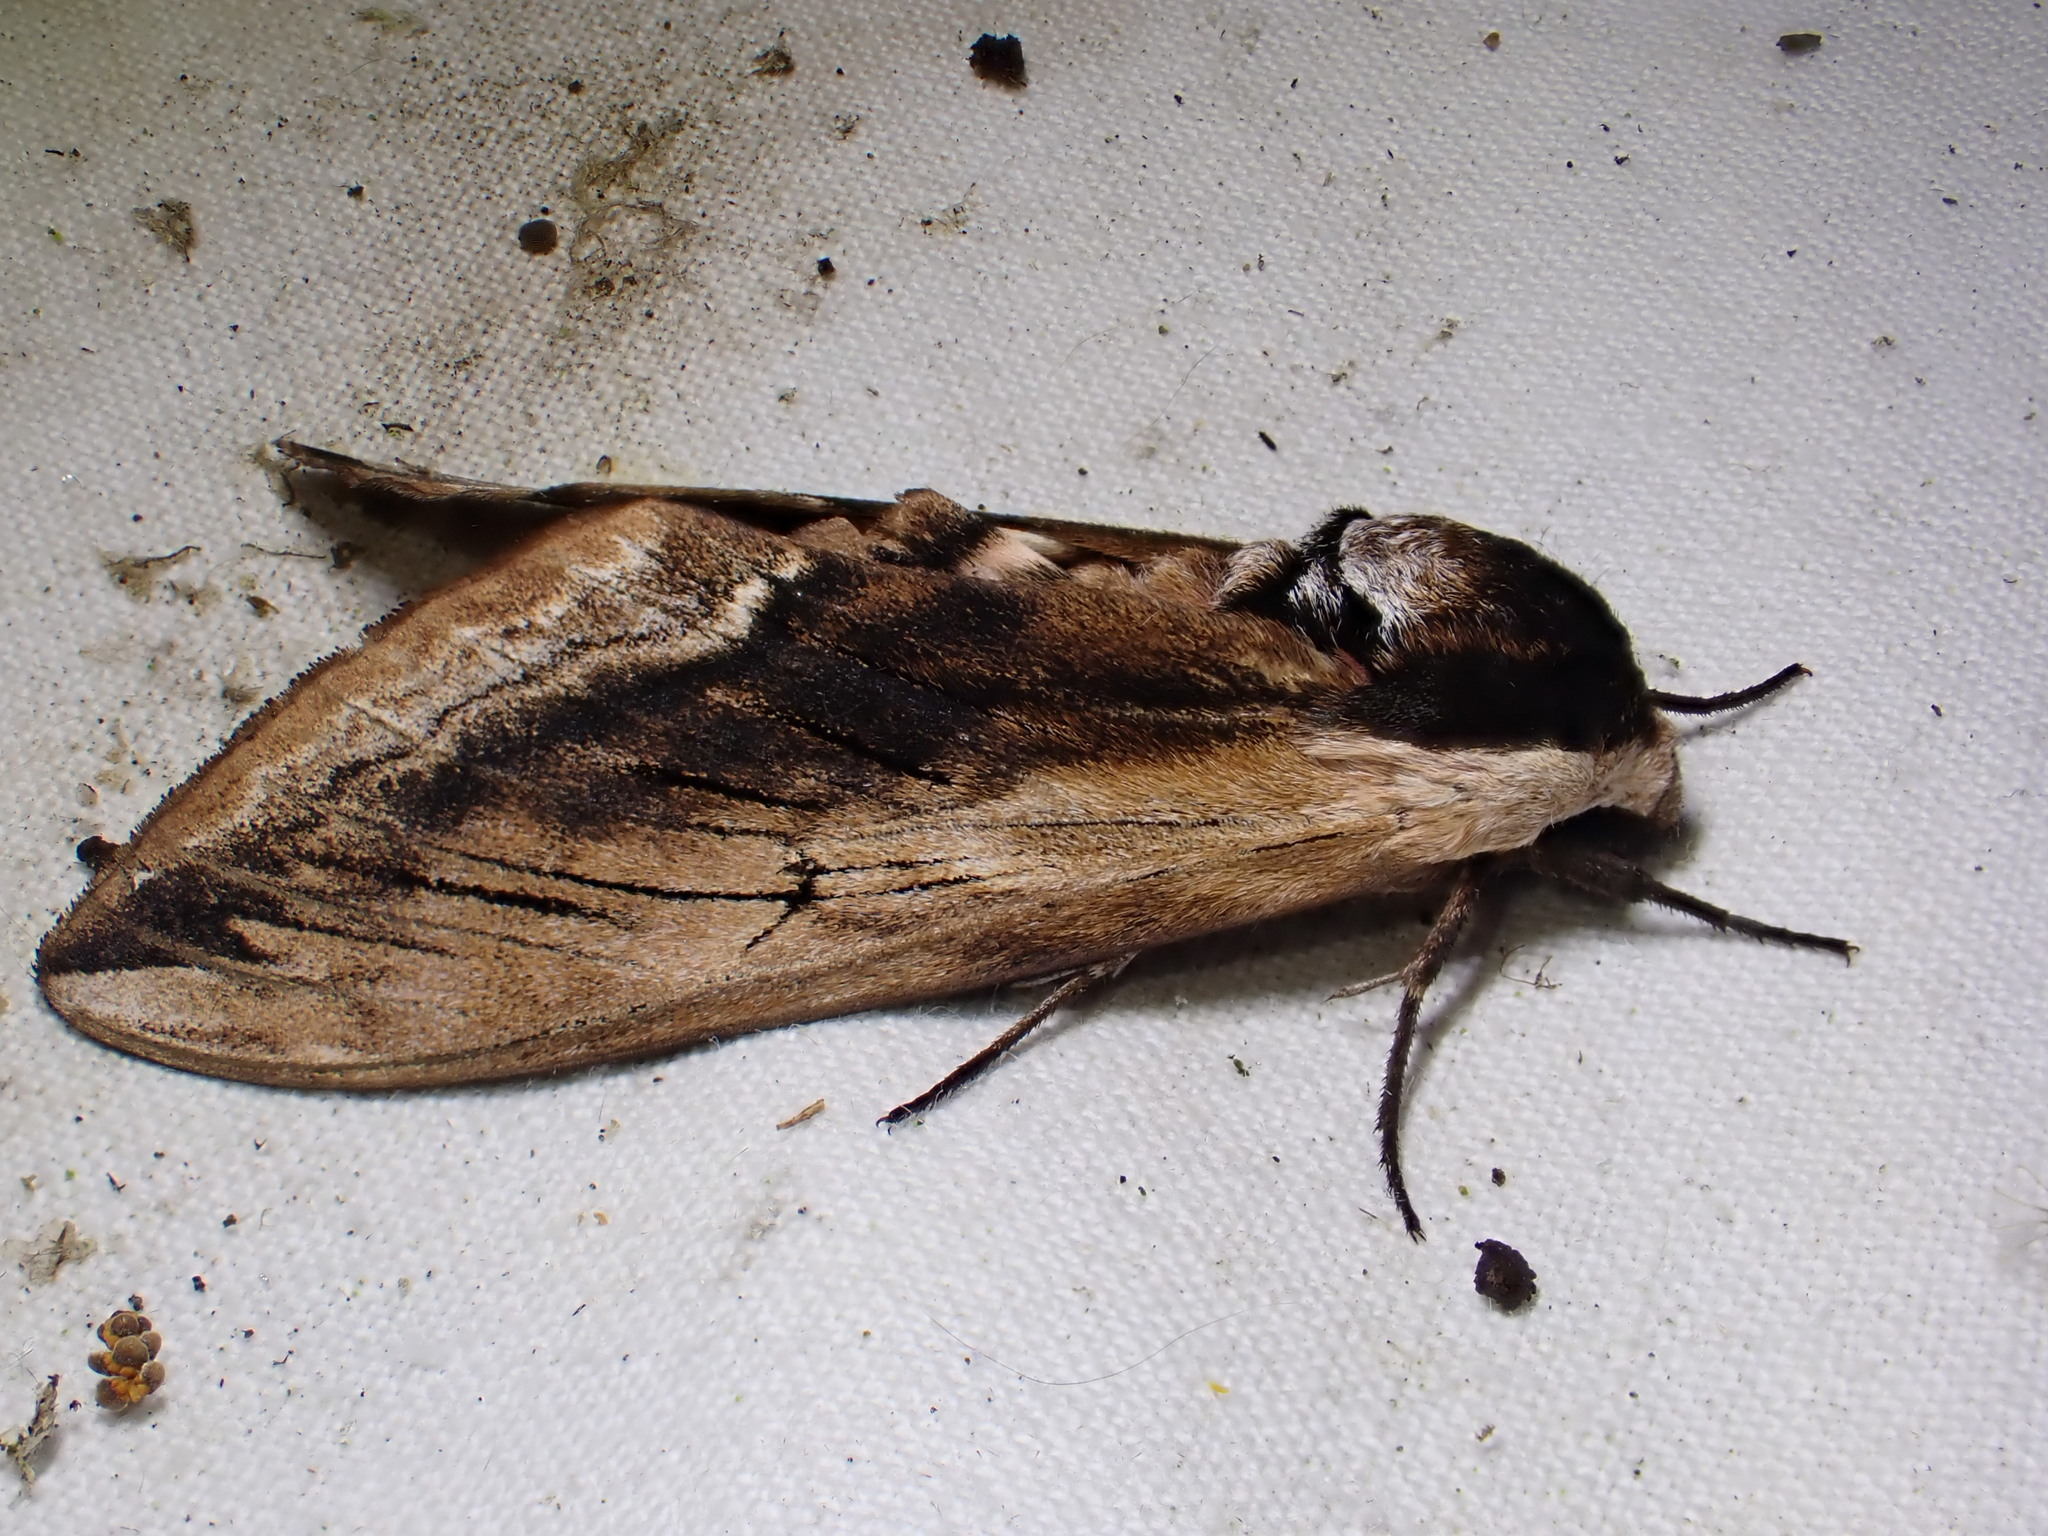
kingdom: Animalia
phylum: Arthropoda
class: Insecta
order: Lepidoptera
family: Sphingidae
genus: Sphinx
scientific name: Sphinx ligustri
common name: Privet hawk-moth
